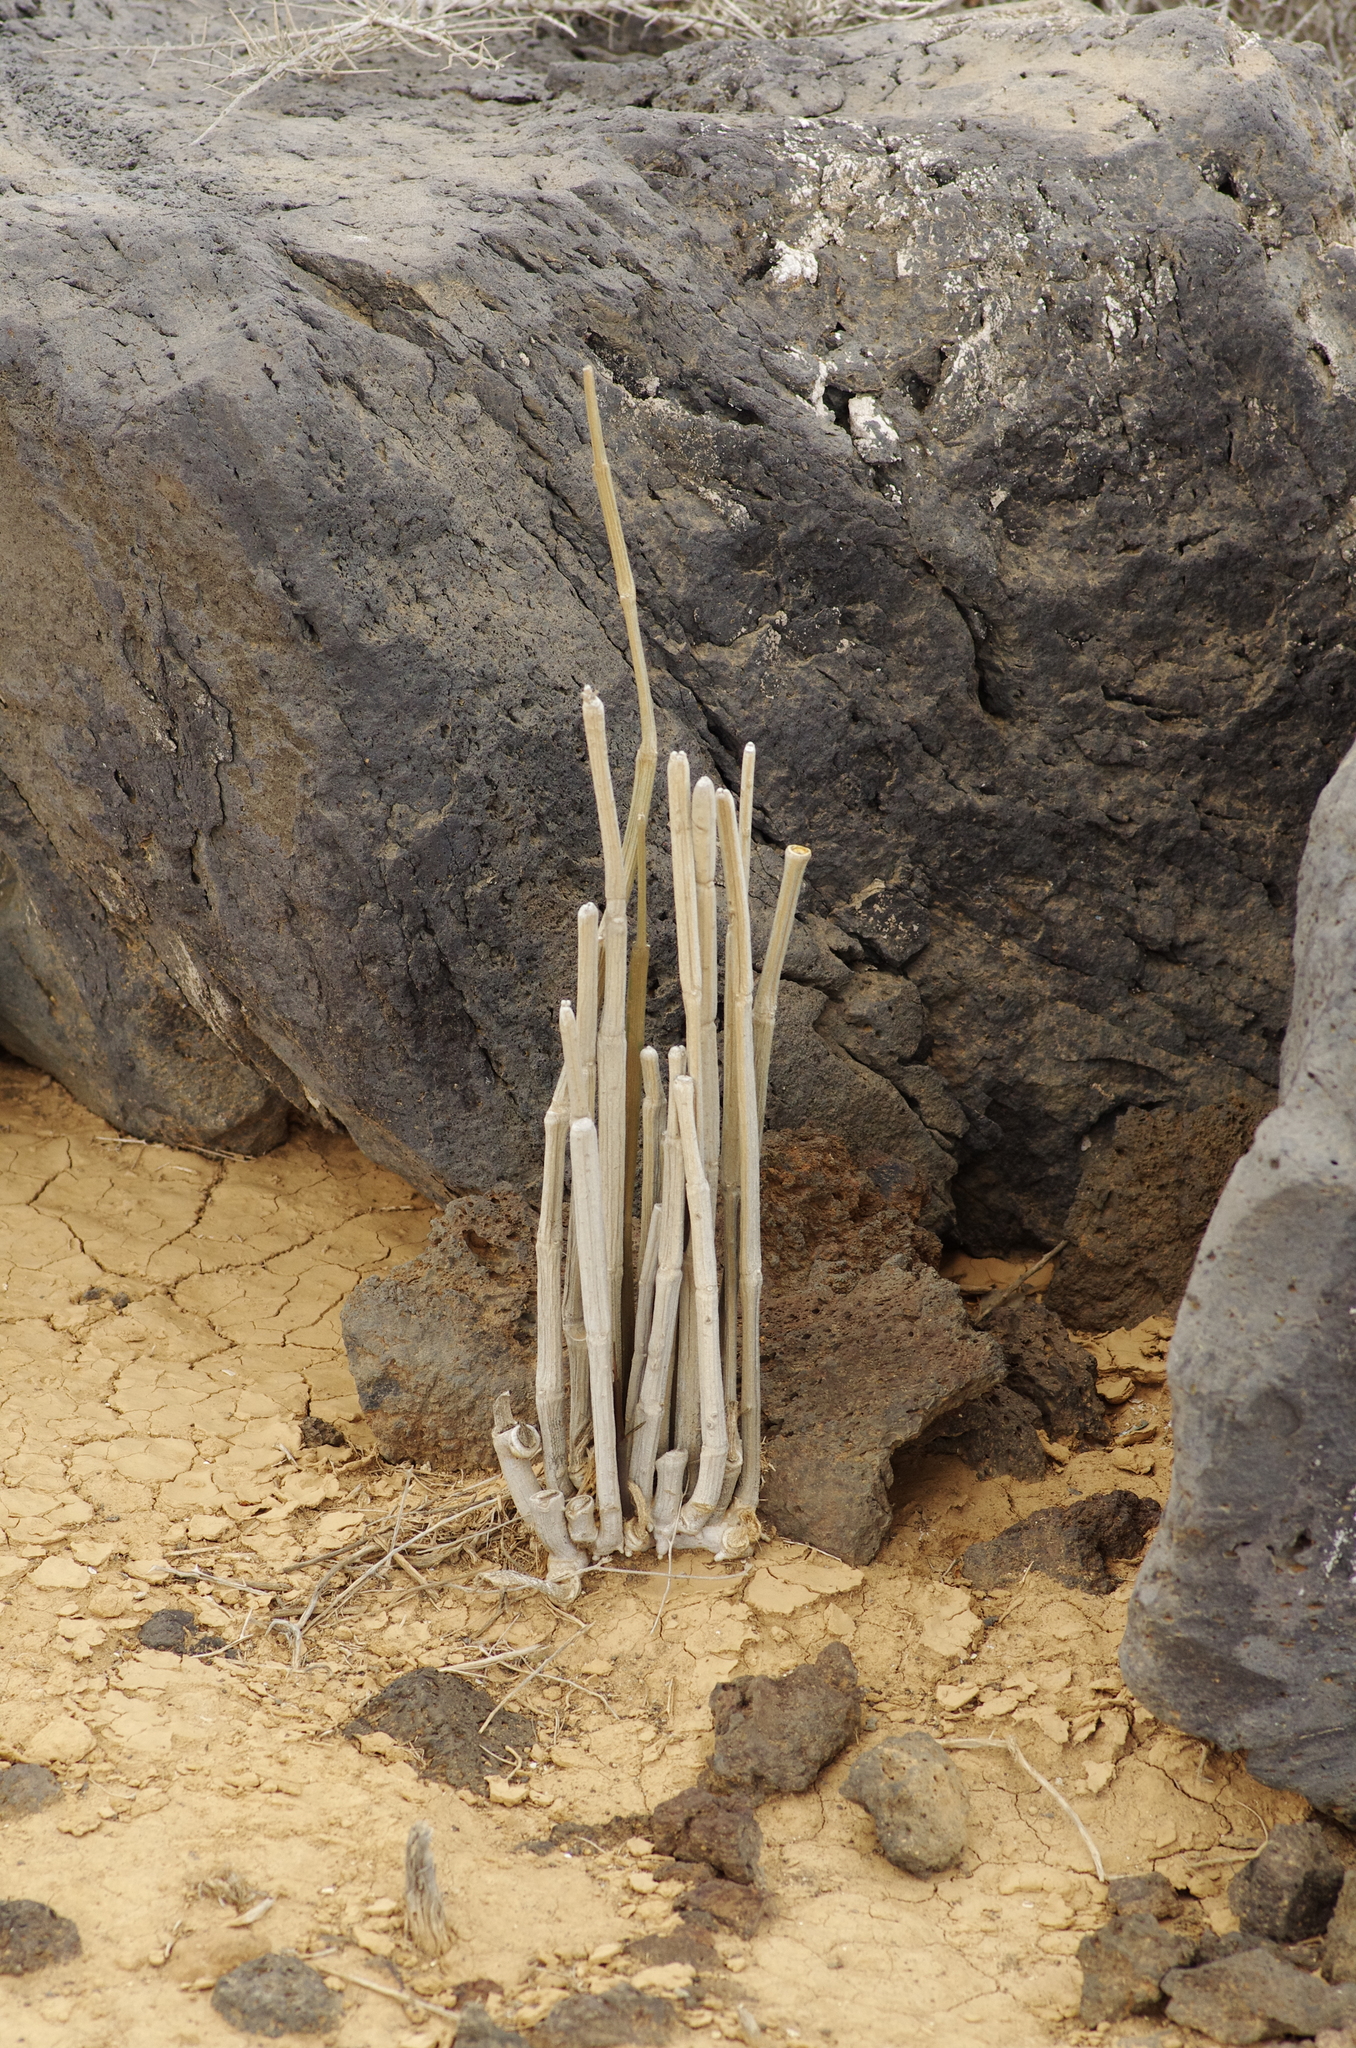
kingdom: Plantae
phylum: Tracheophyta
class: Magnoliopsida
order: Gentianales
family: Apocynaceae
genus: Ceropegia
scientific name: Ceropegia fusca
